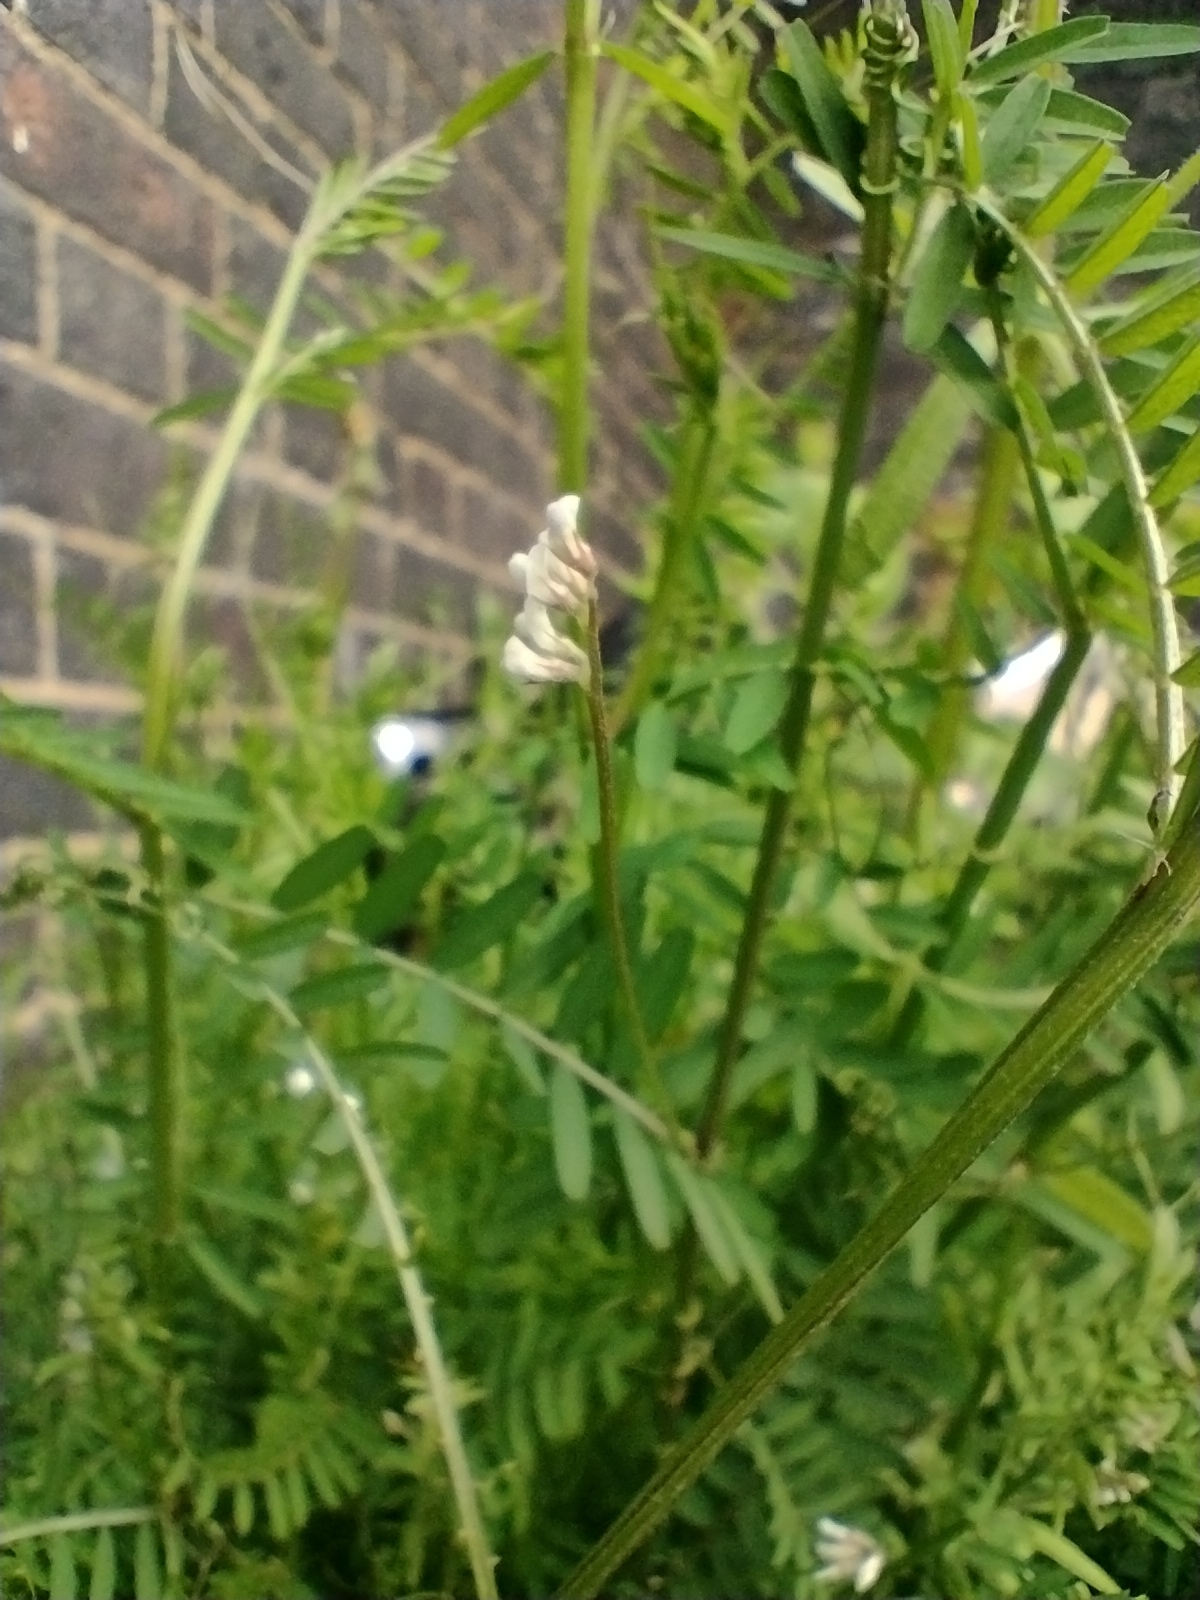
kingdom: Plantae
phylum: Tracheophyta
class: Magnoliopsida
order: Fabales
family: Fabaceae
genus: Vicia
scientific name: Vicia hirsuta
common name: Tiny vetch
